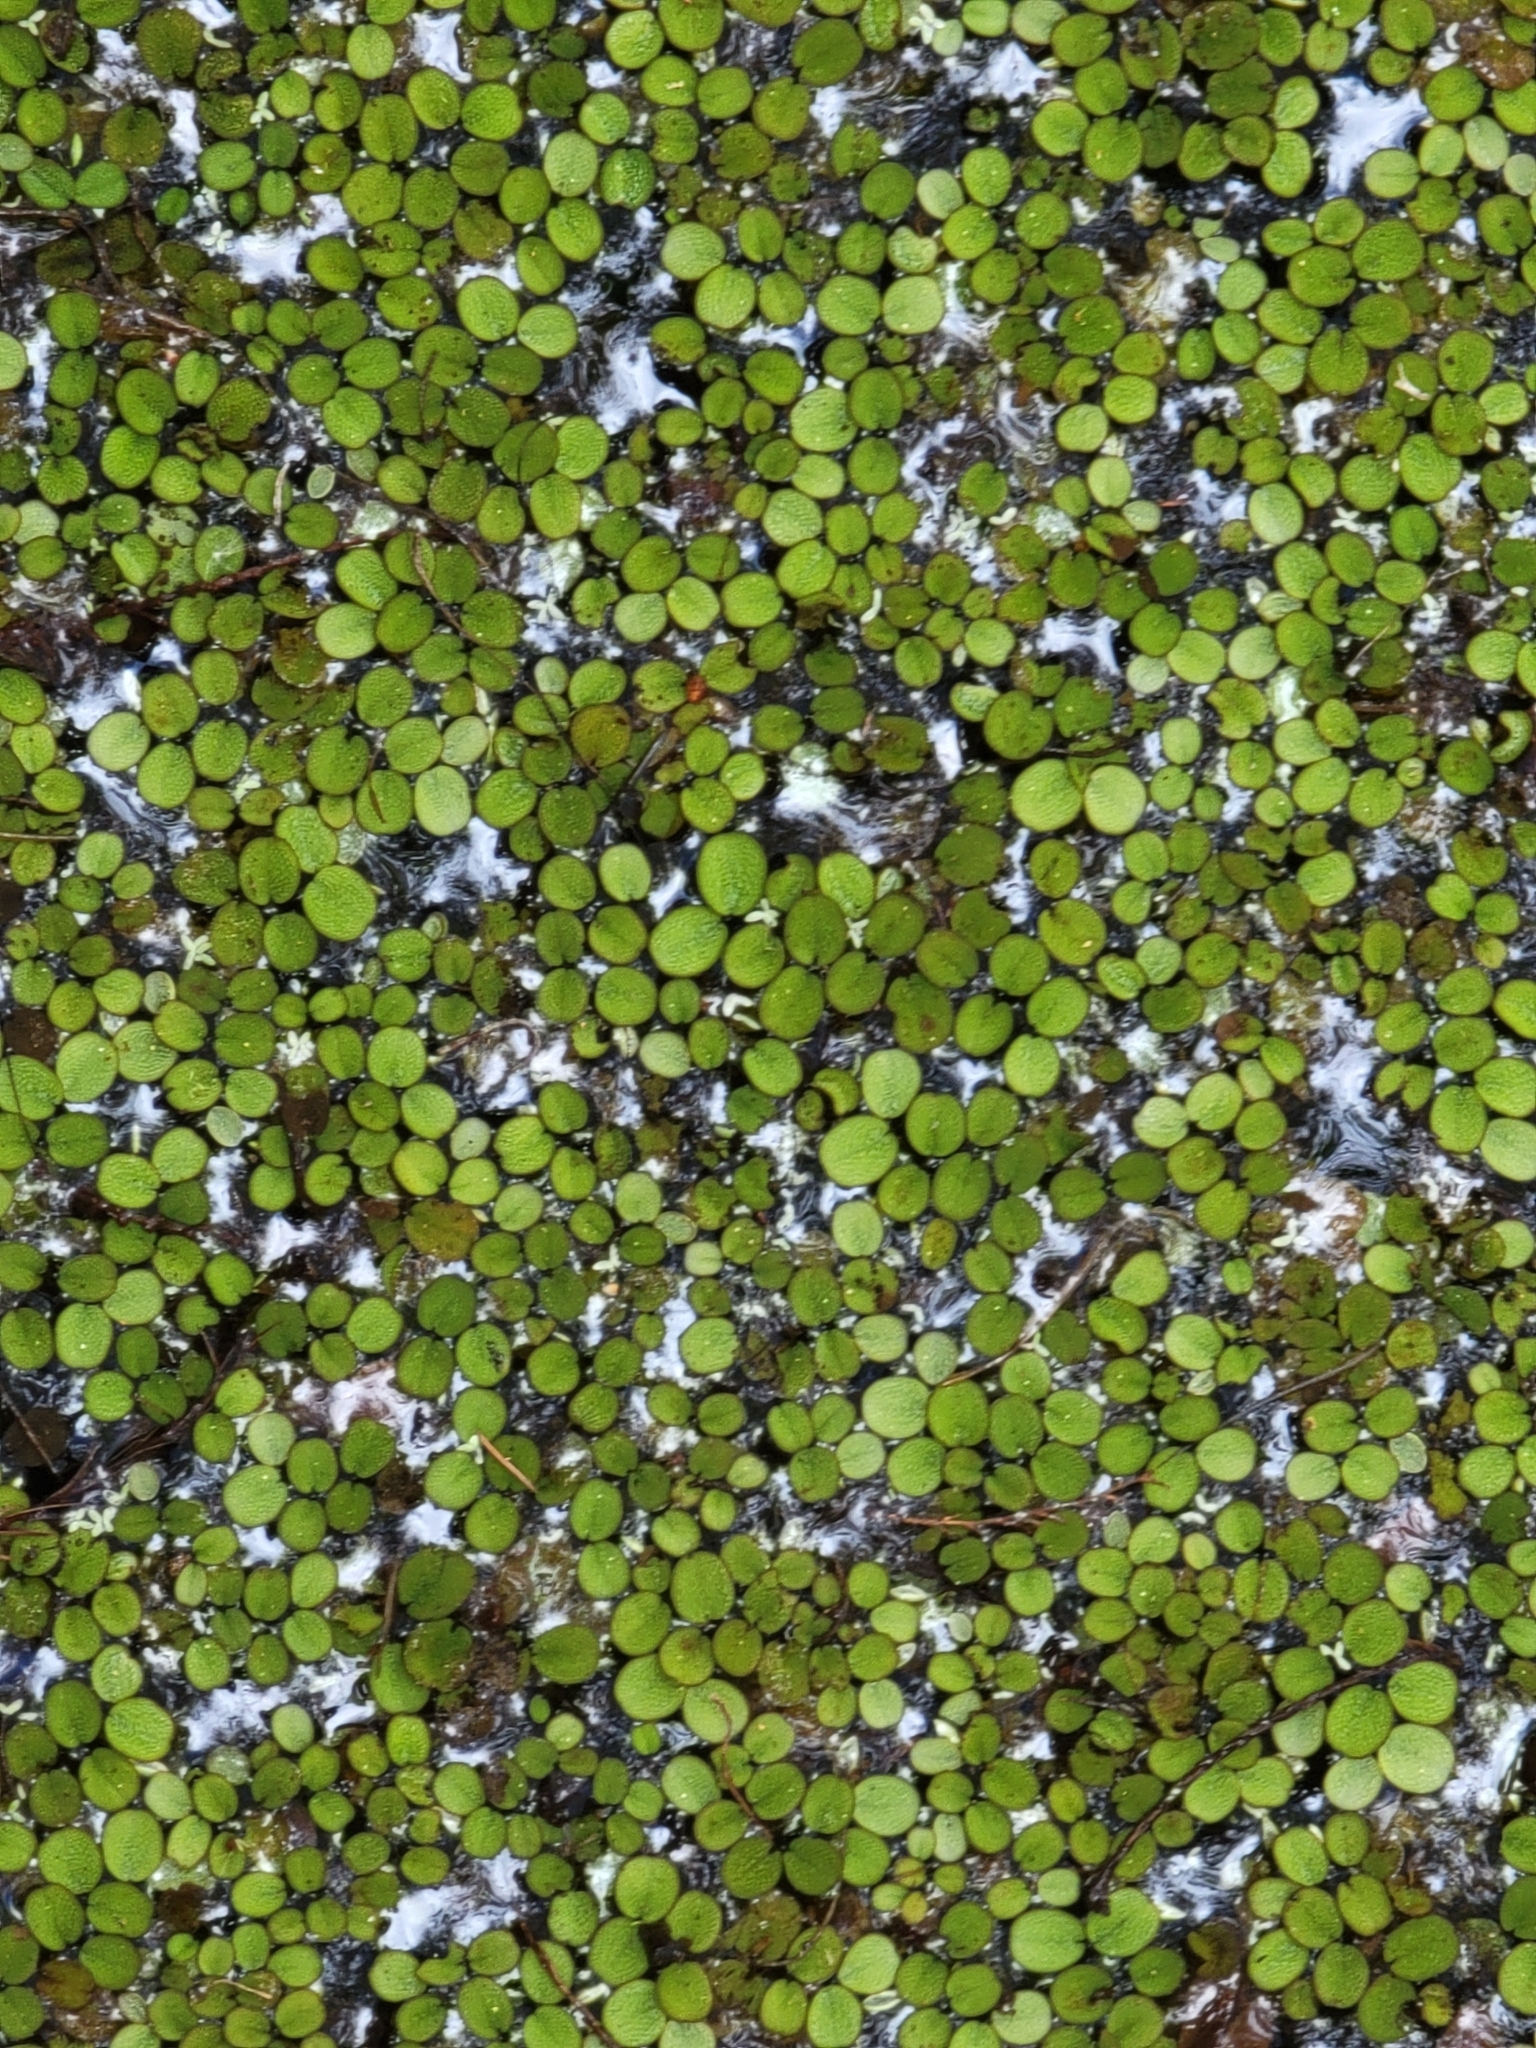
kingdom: Plantae
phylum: Tracheophyta
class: Polypodiopsida
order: Salviniales
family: Salviniaceae
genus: Salvinia
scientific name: Salvinia minima
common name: Water spangles
